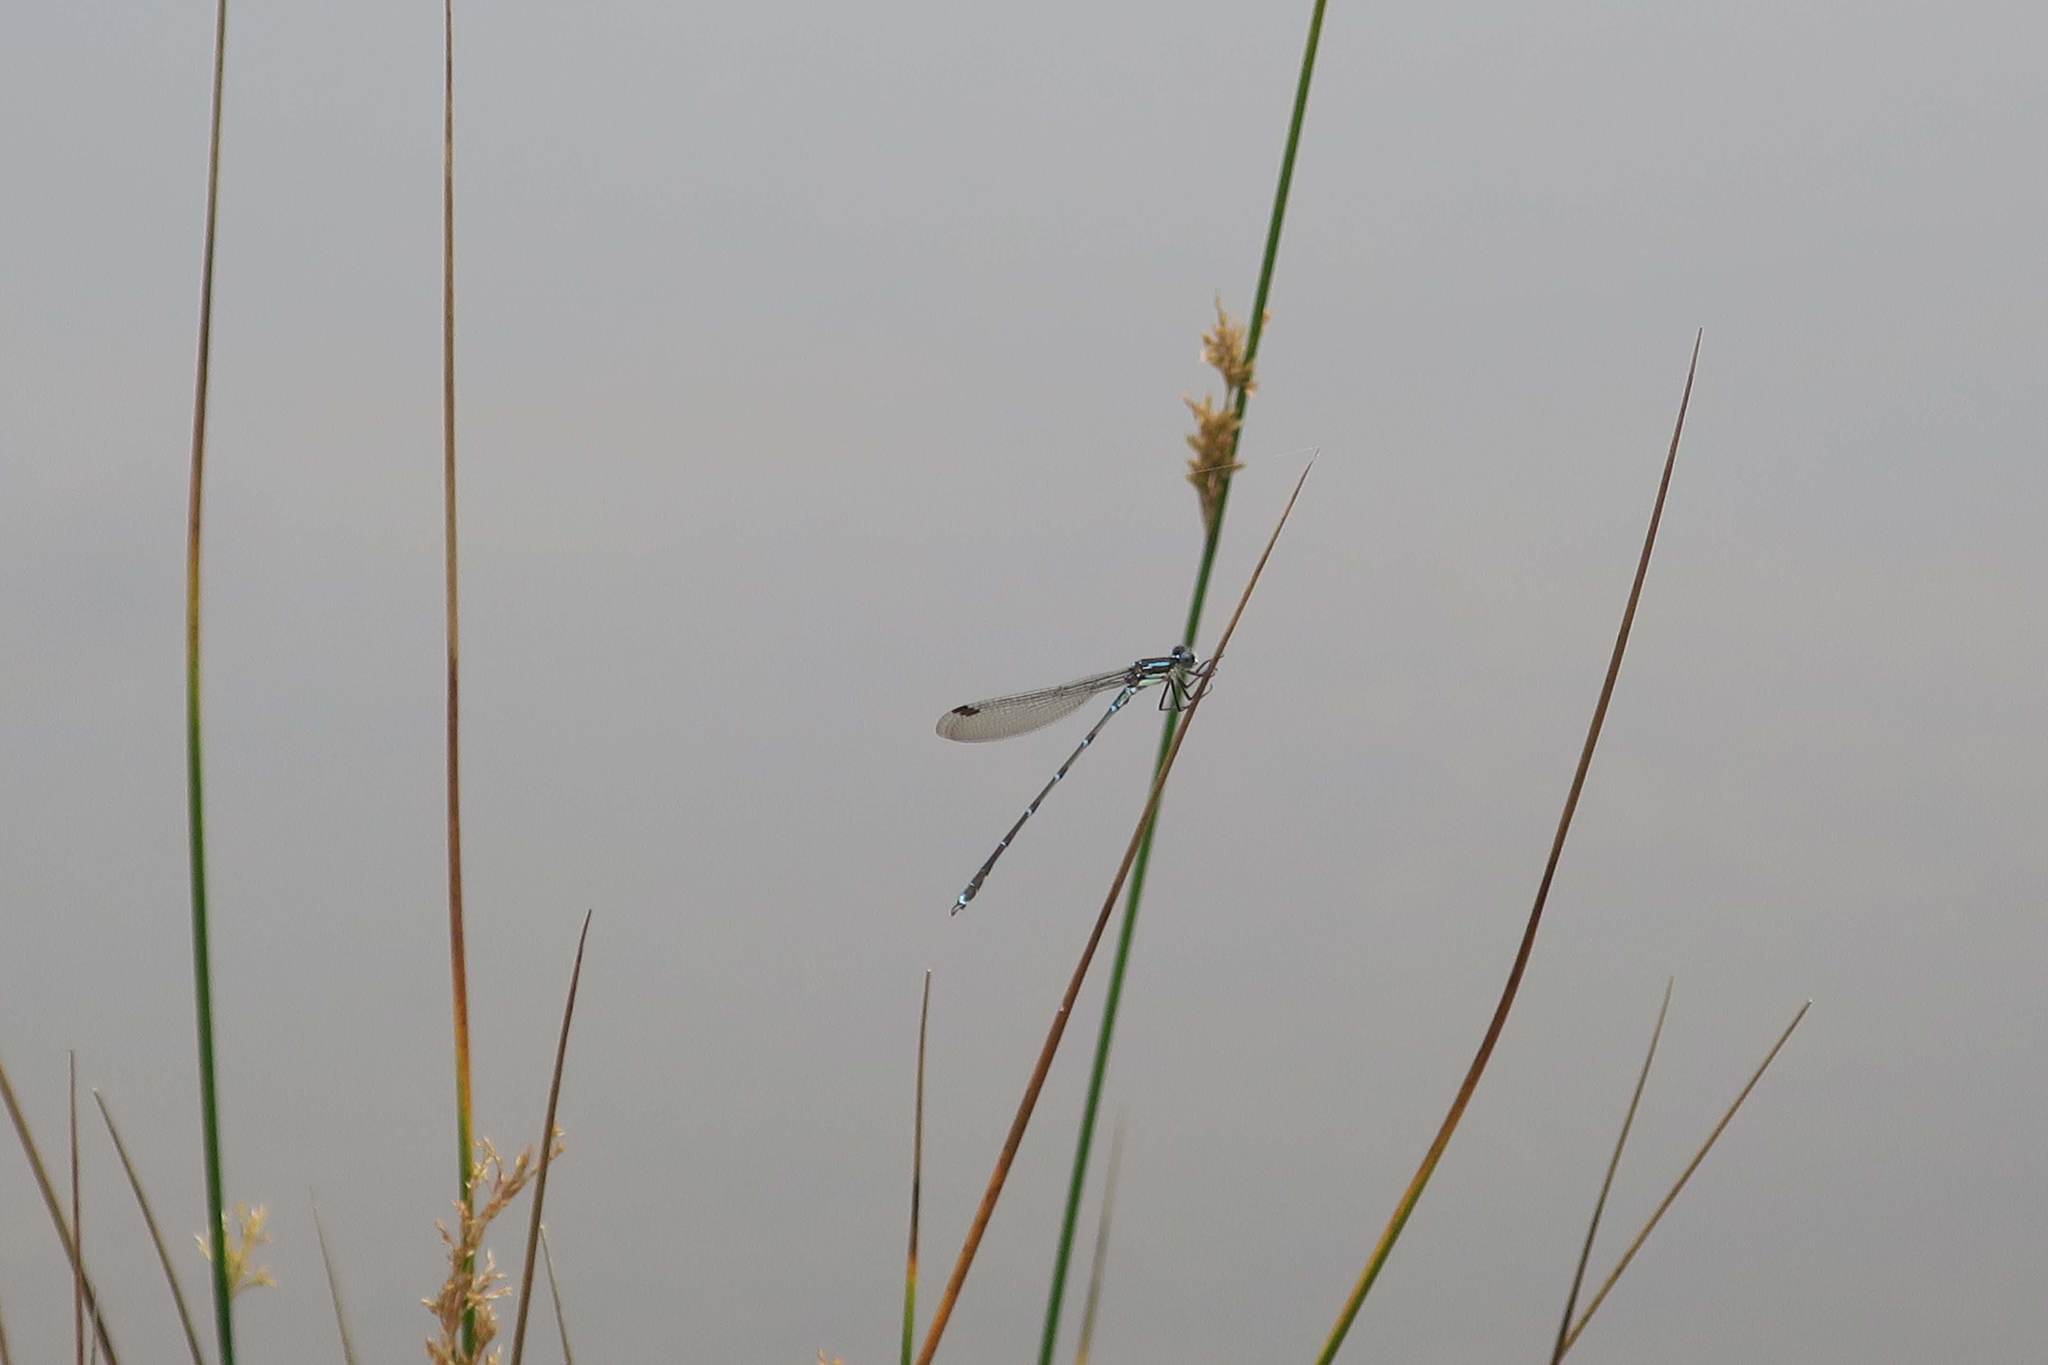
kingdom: Animalia
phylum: Arthropoda
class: Insecta
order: Odonata
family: Lestidae
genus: Austrolestes
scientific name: Austrolestes colensonis
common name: Blue damselfly
